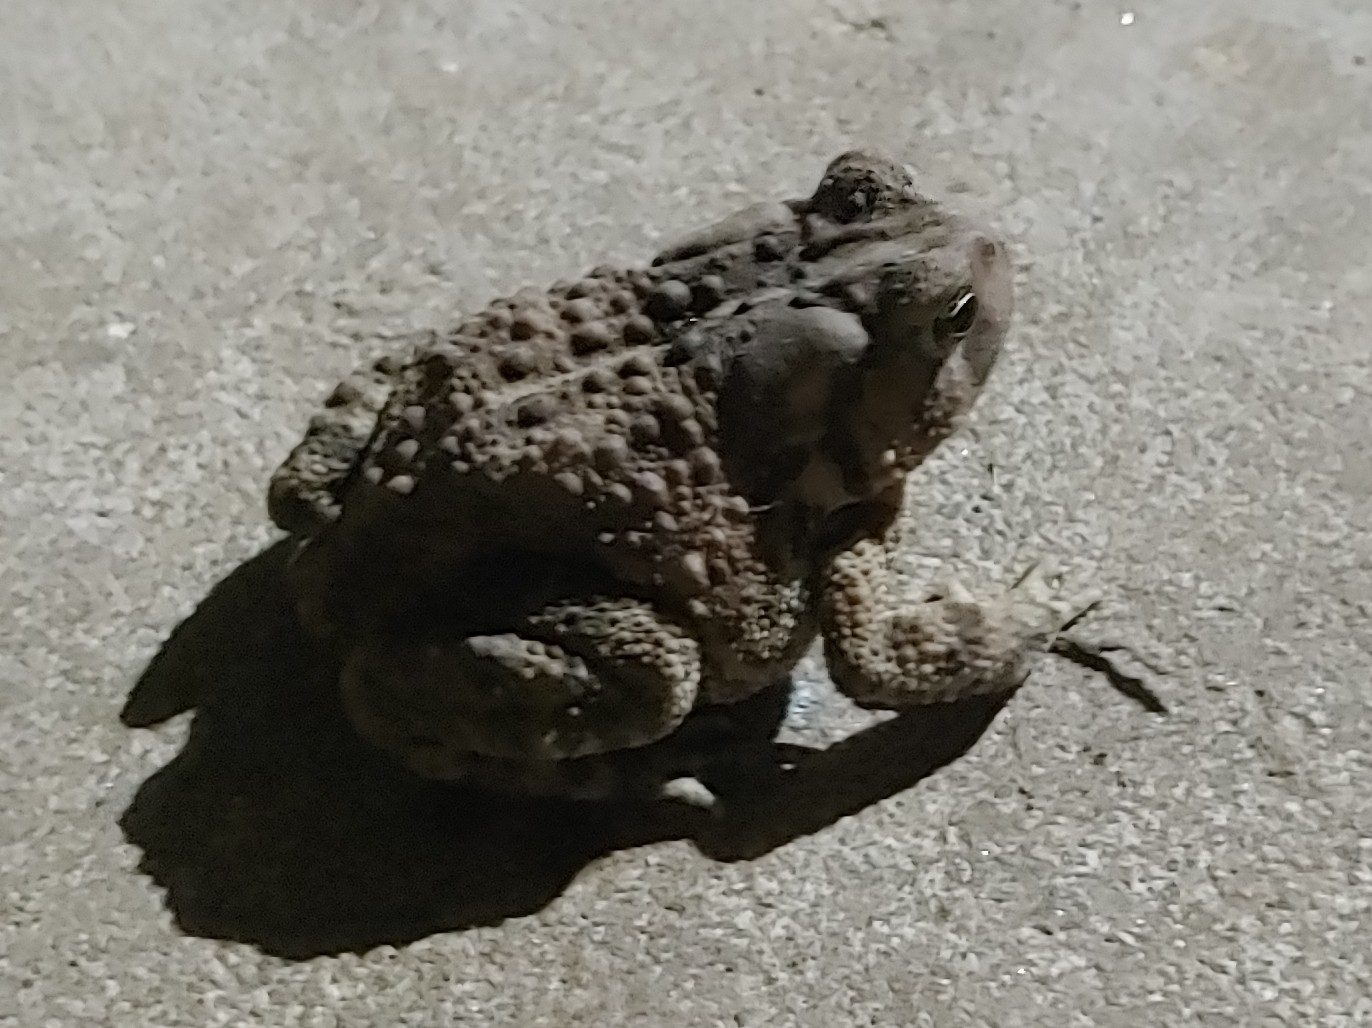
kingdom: Animalia
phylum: Chordata
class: Amphibia
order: Anura
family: Bufonidae
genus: Anaxyrus
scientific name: Anaxyrus americanus
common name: American toad
